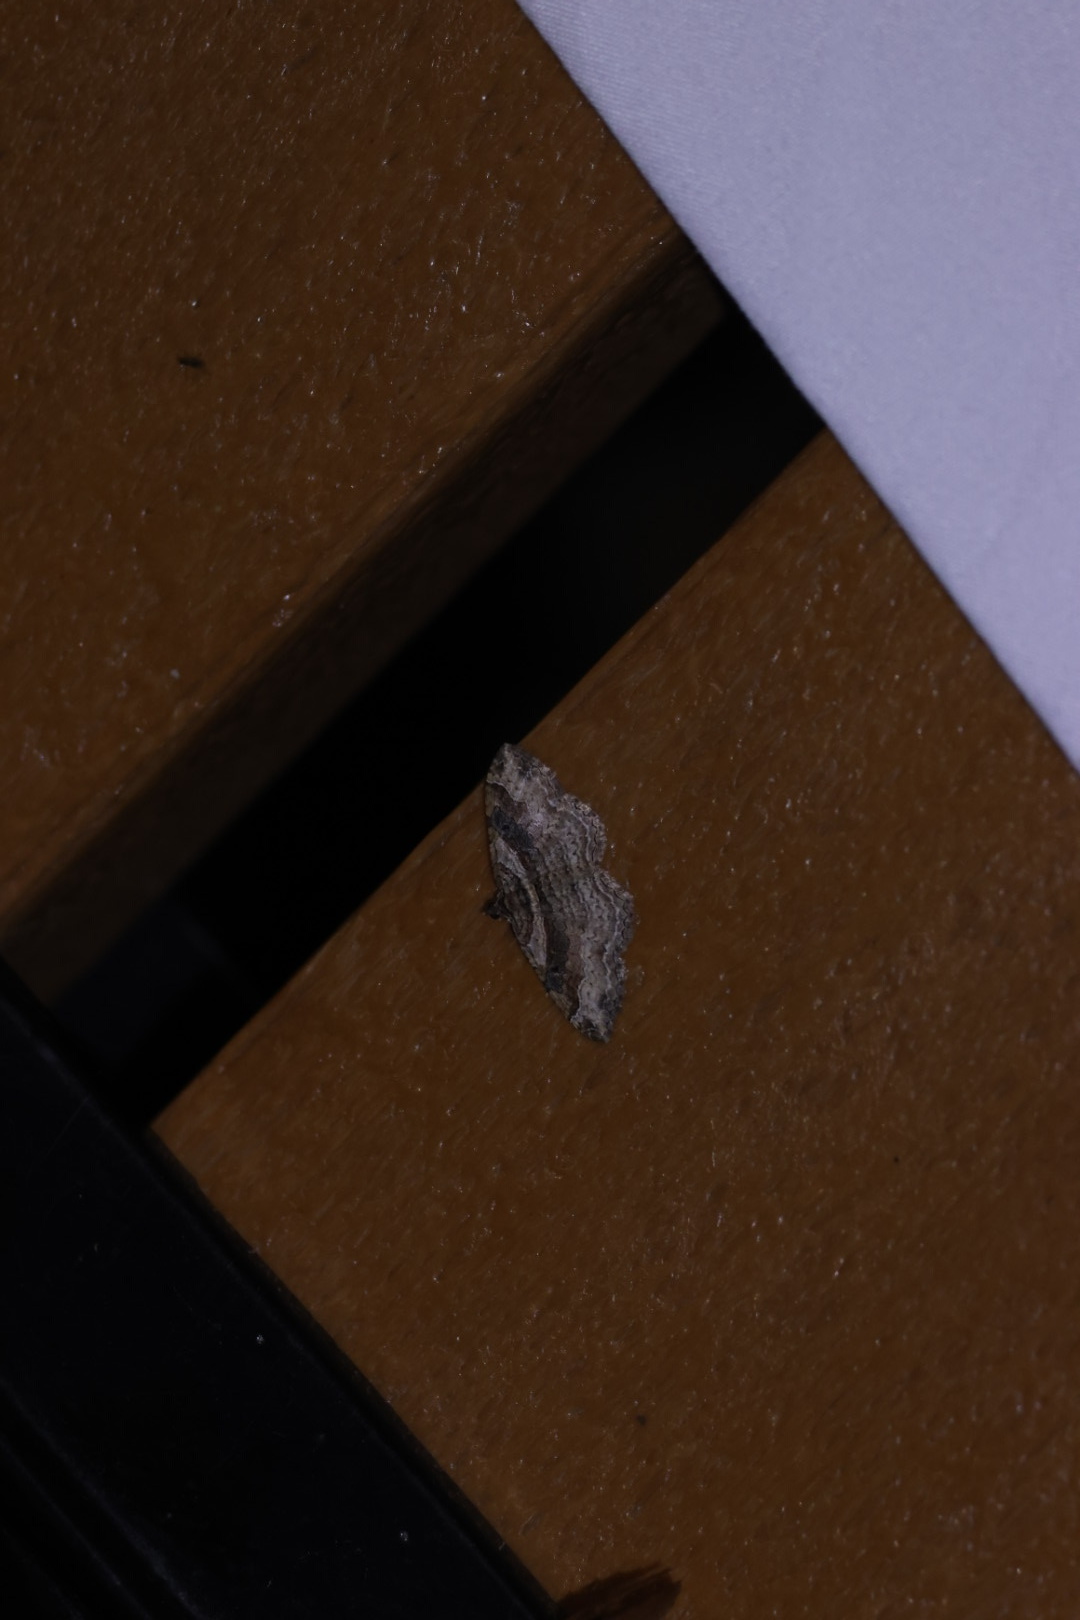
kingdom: Animalia
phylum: Arthropoda
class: Insecta
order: Lepidoptera
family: Geometridae
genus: Costaconvexa
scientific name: Costaconvexa centrostrigaria
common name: Bent-line carpet
